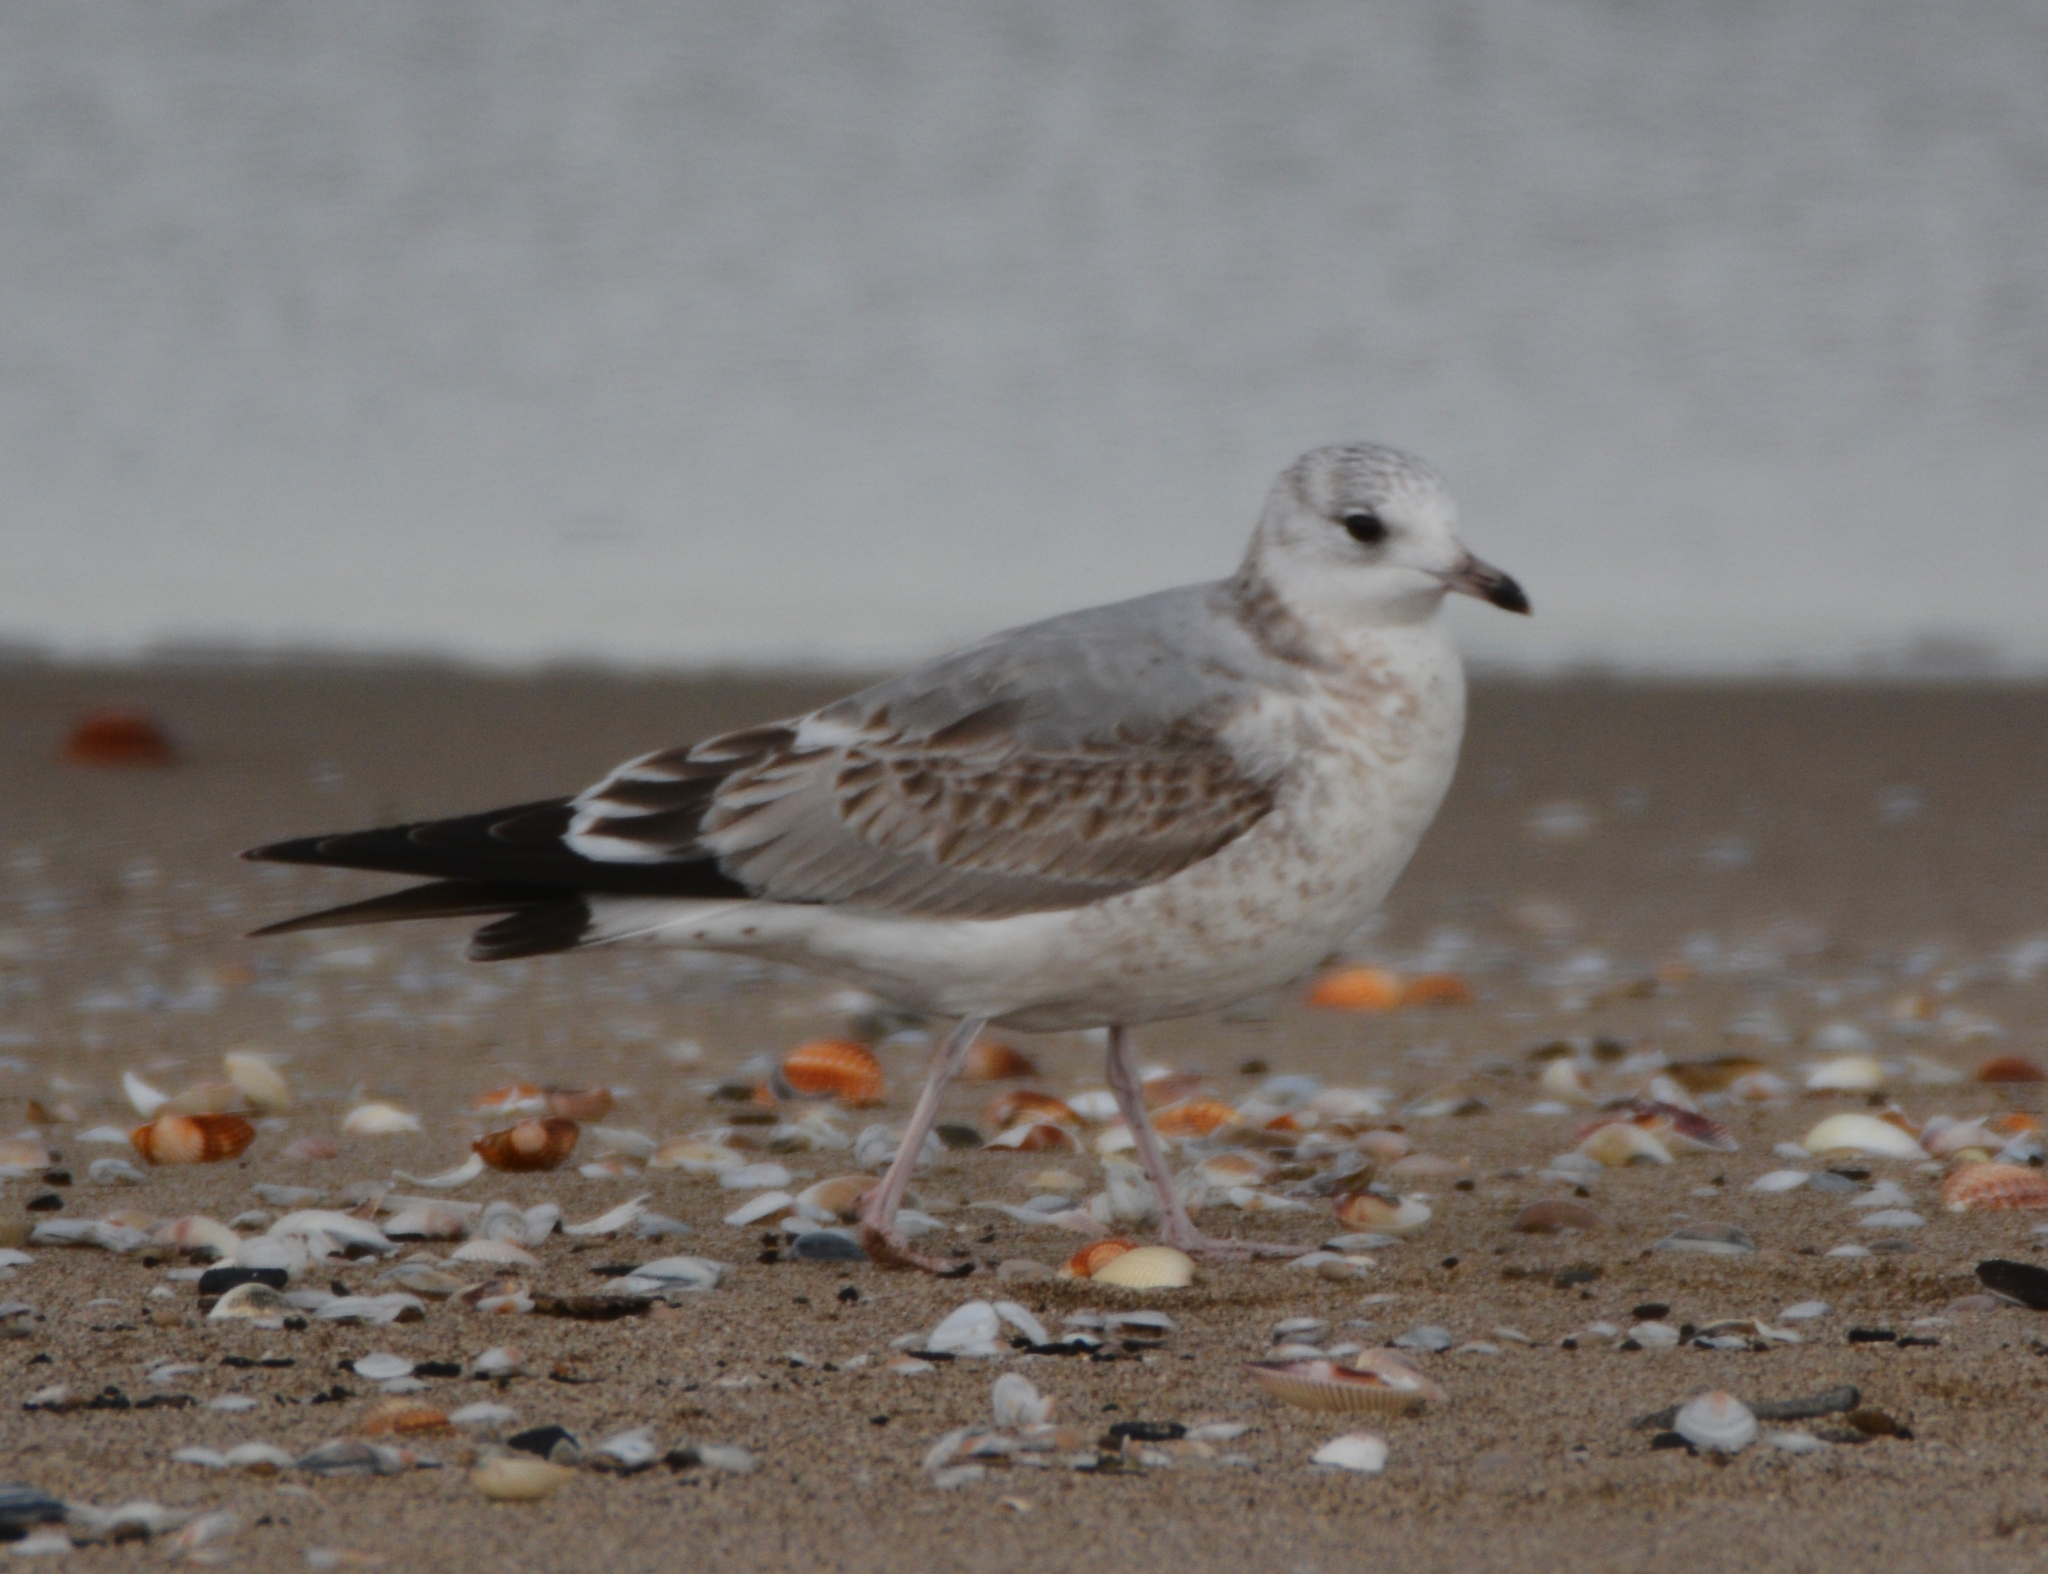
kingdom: Animalia
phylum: Chordata
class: Aves
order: Charadriiformes
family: Laridae
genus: Larus
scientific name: Larus canus
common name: Mew gull
